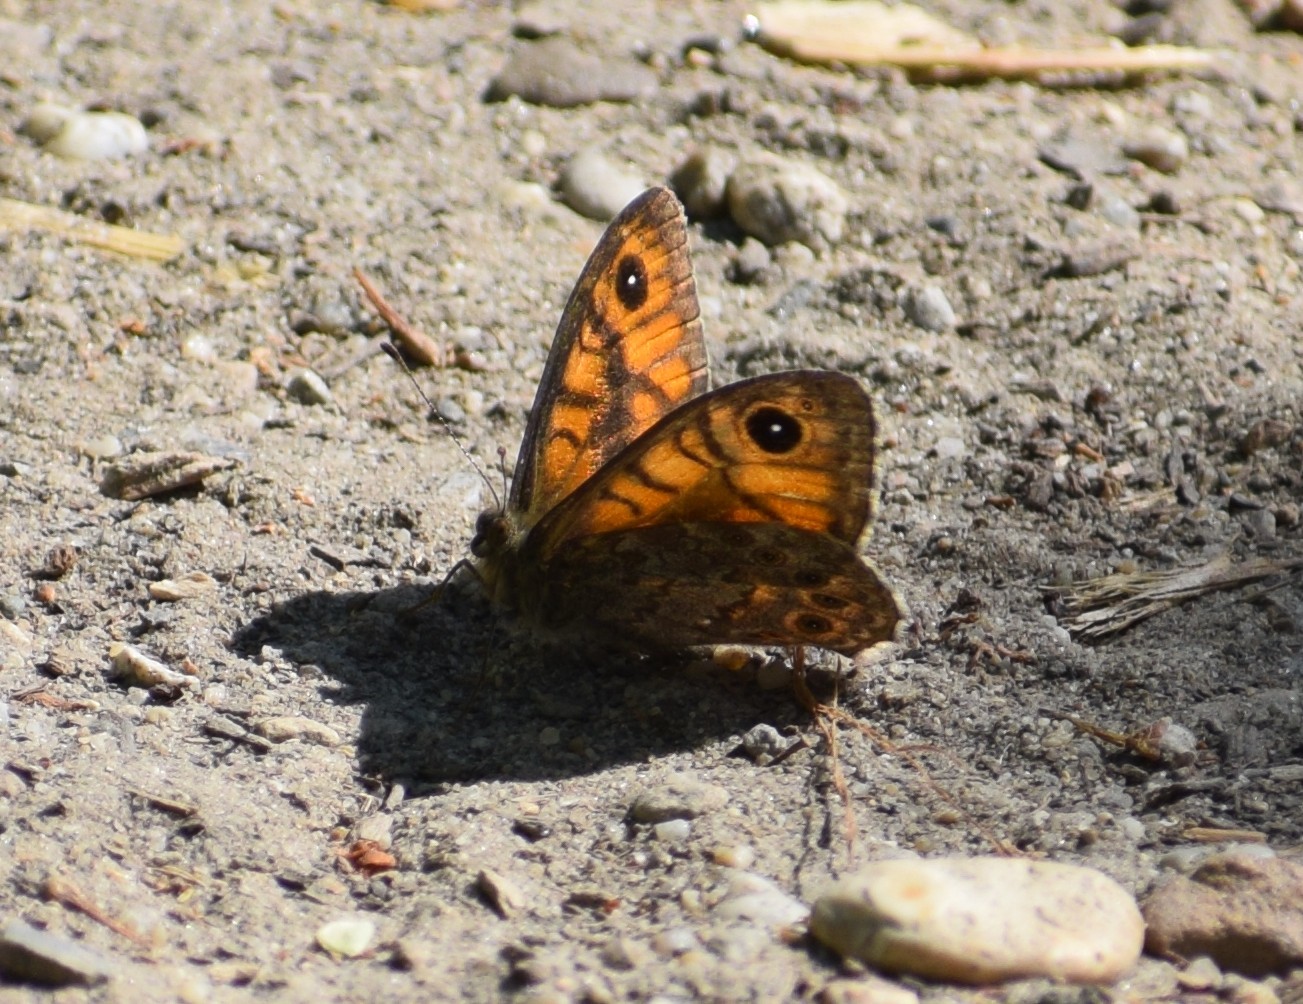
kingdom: Animalia
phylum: Arthropoda
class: Insecta
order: Lepidoptera
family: Nymphalidae
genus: Pararge
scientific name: Pararge Lasiommata megera
